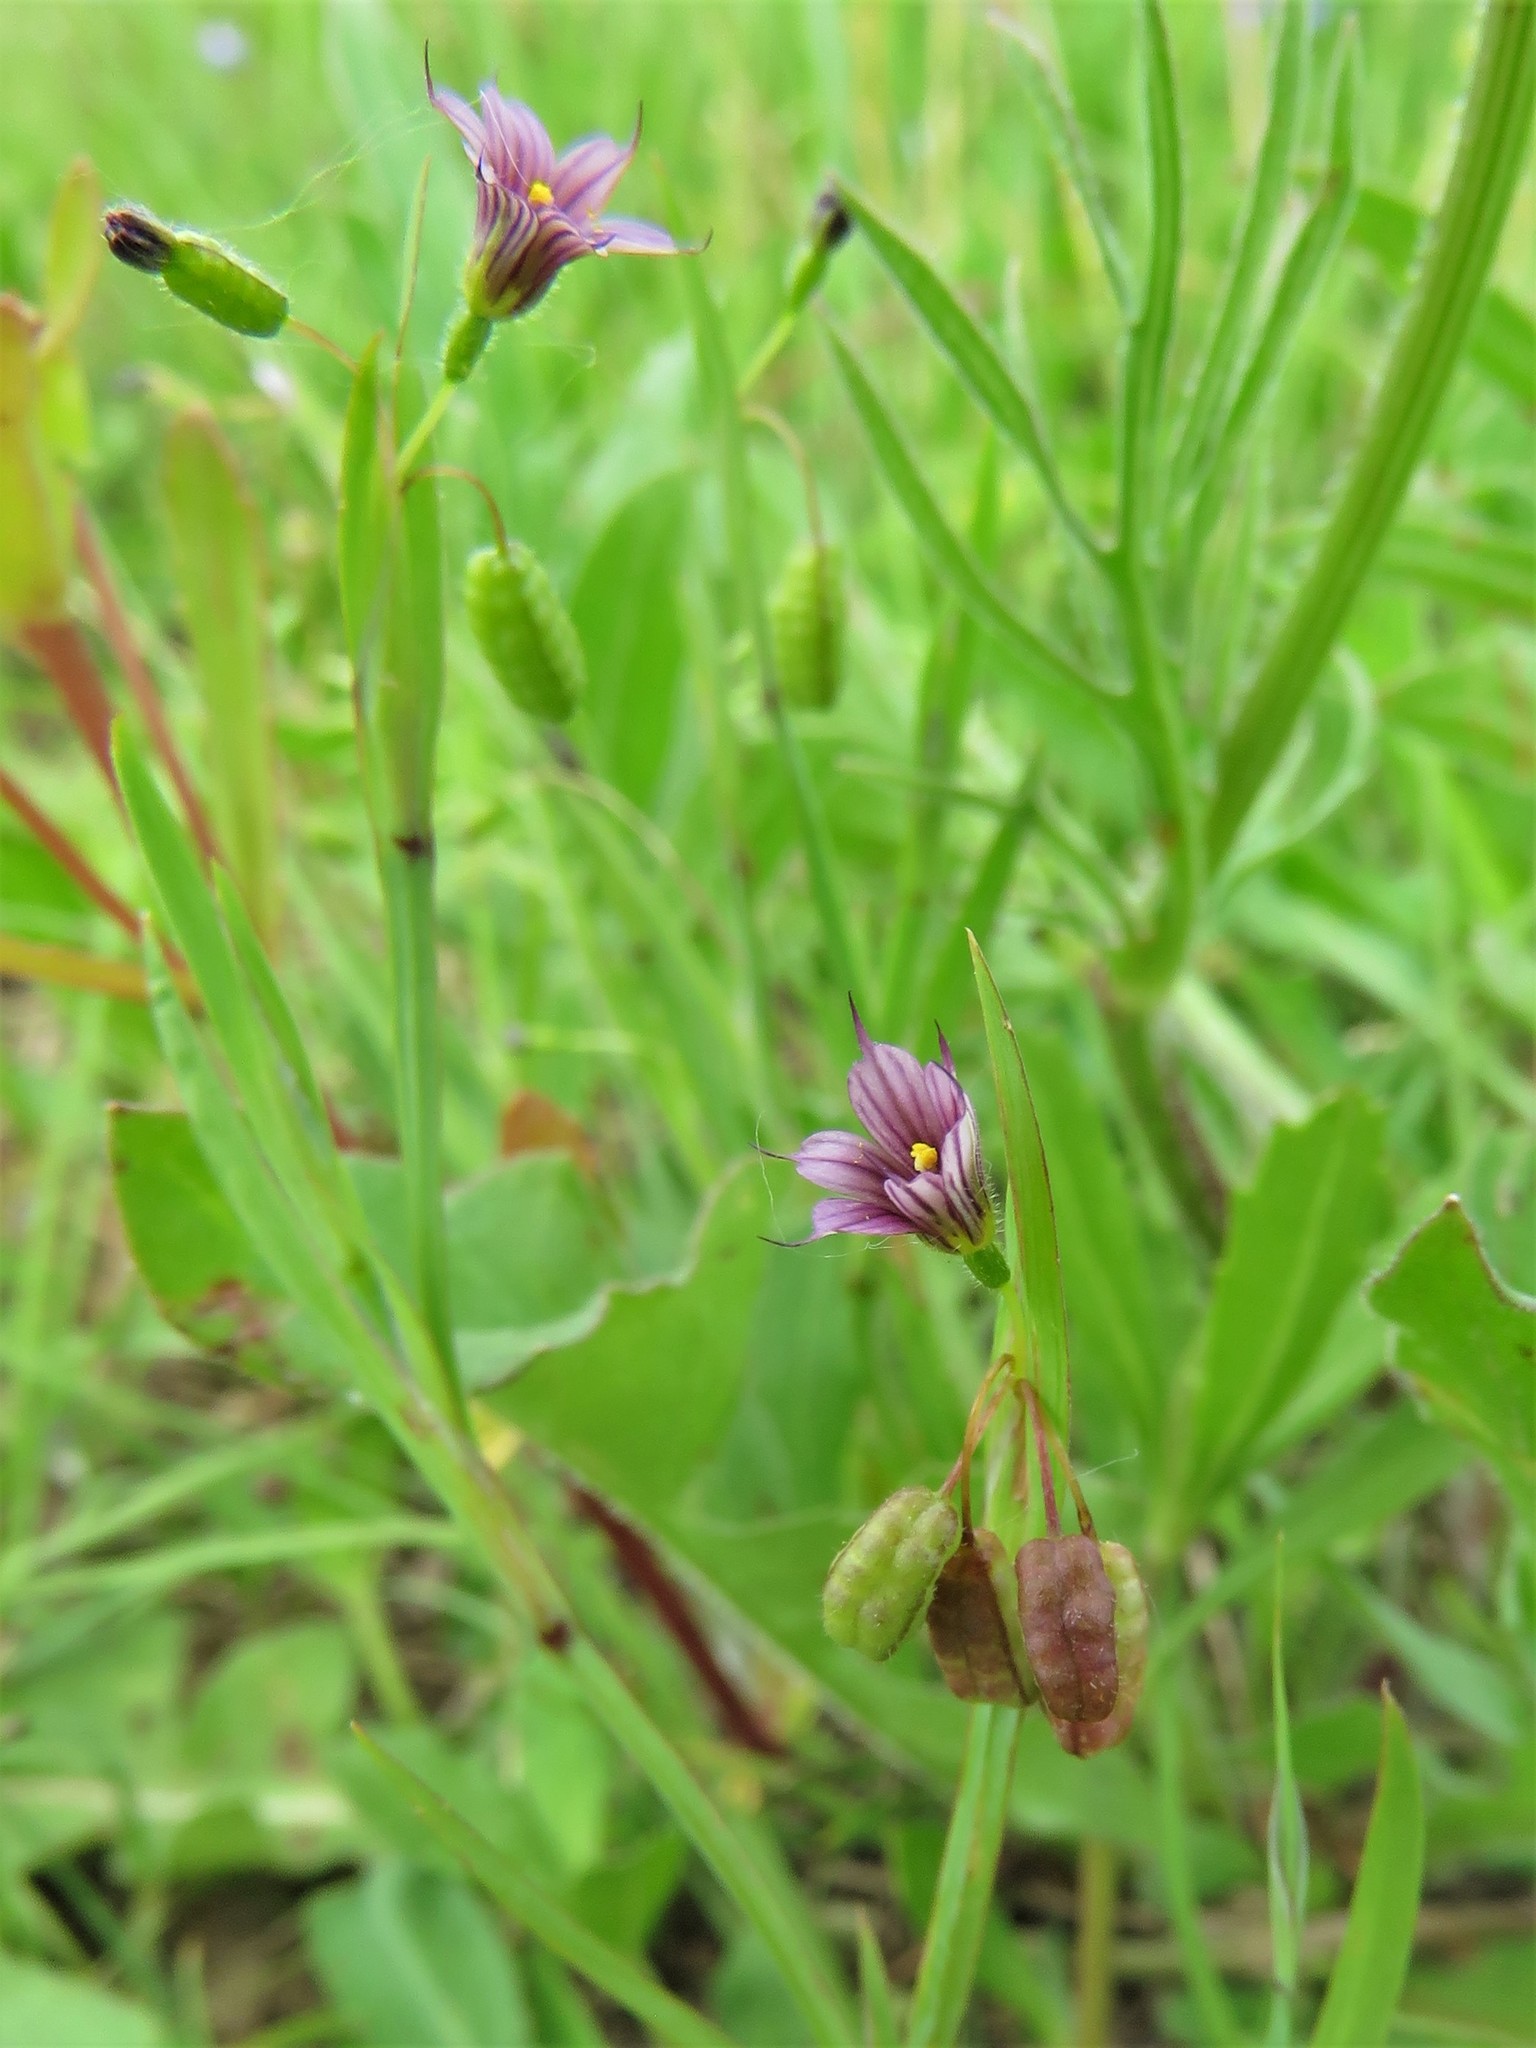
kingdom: Plantae
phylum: Tracheophyta
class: Liliopsida
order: Asparagales
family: Iridaceae
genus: Sisyrinchium
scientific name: Sisyrinchium minus
